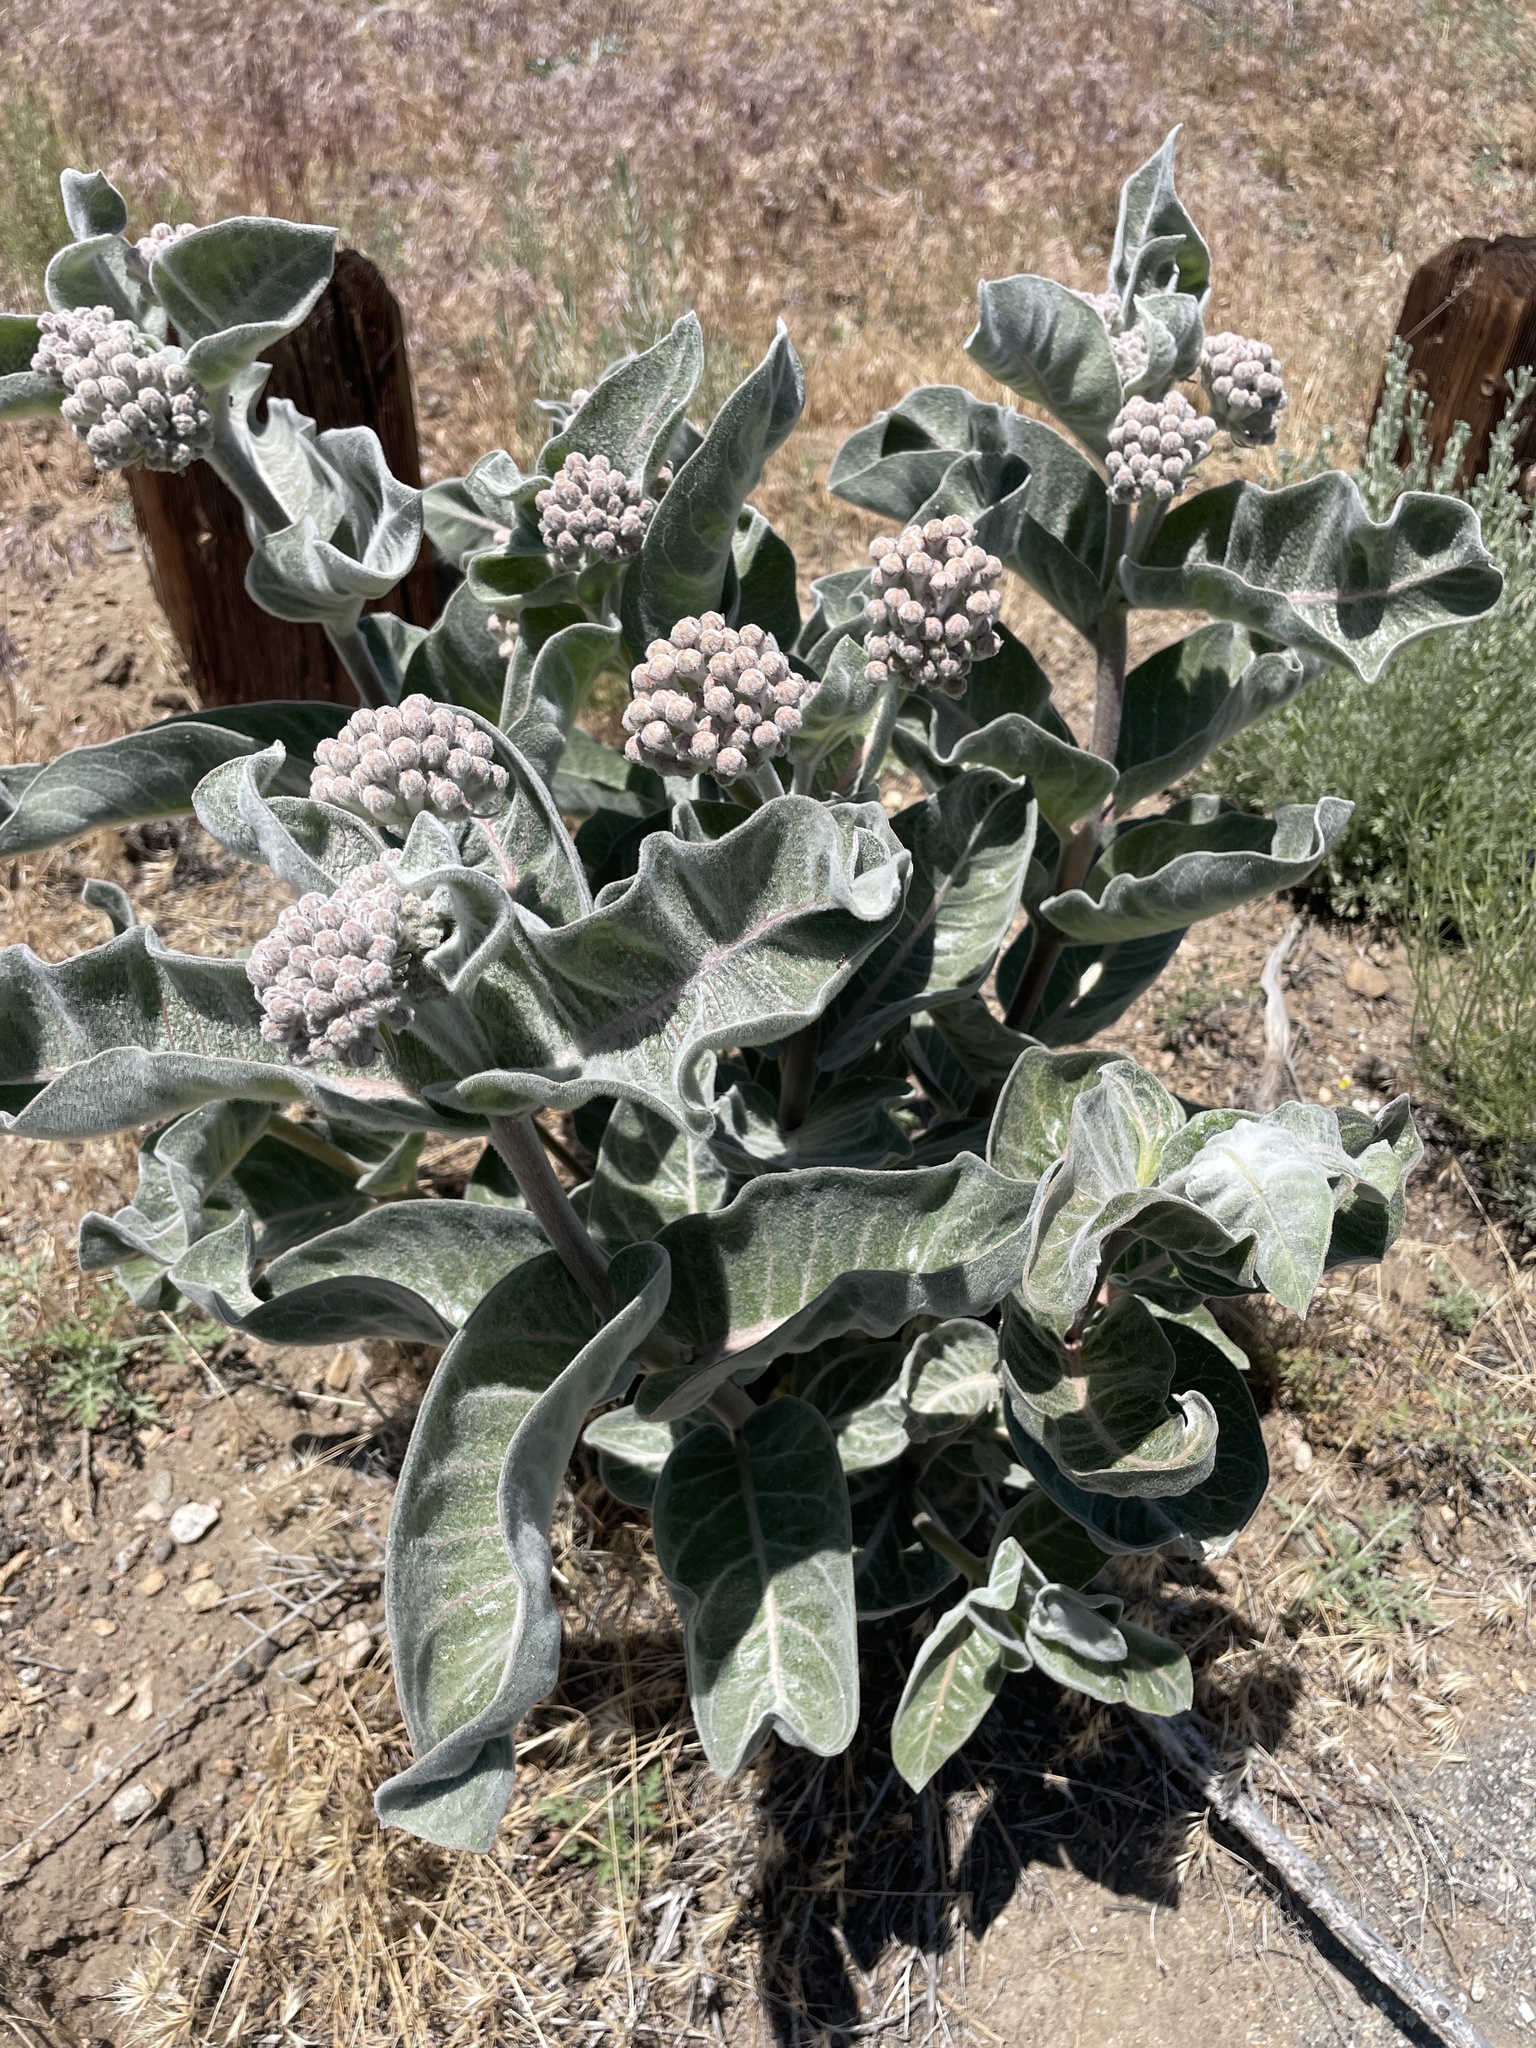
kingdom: Plantae
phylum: Tracheophyta
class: Magnoliopsida
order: Gentianales
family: Apocynaceae
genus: Asclepias
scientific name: Asclepias eriocarpa
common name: Indian milkweed
